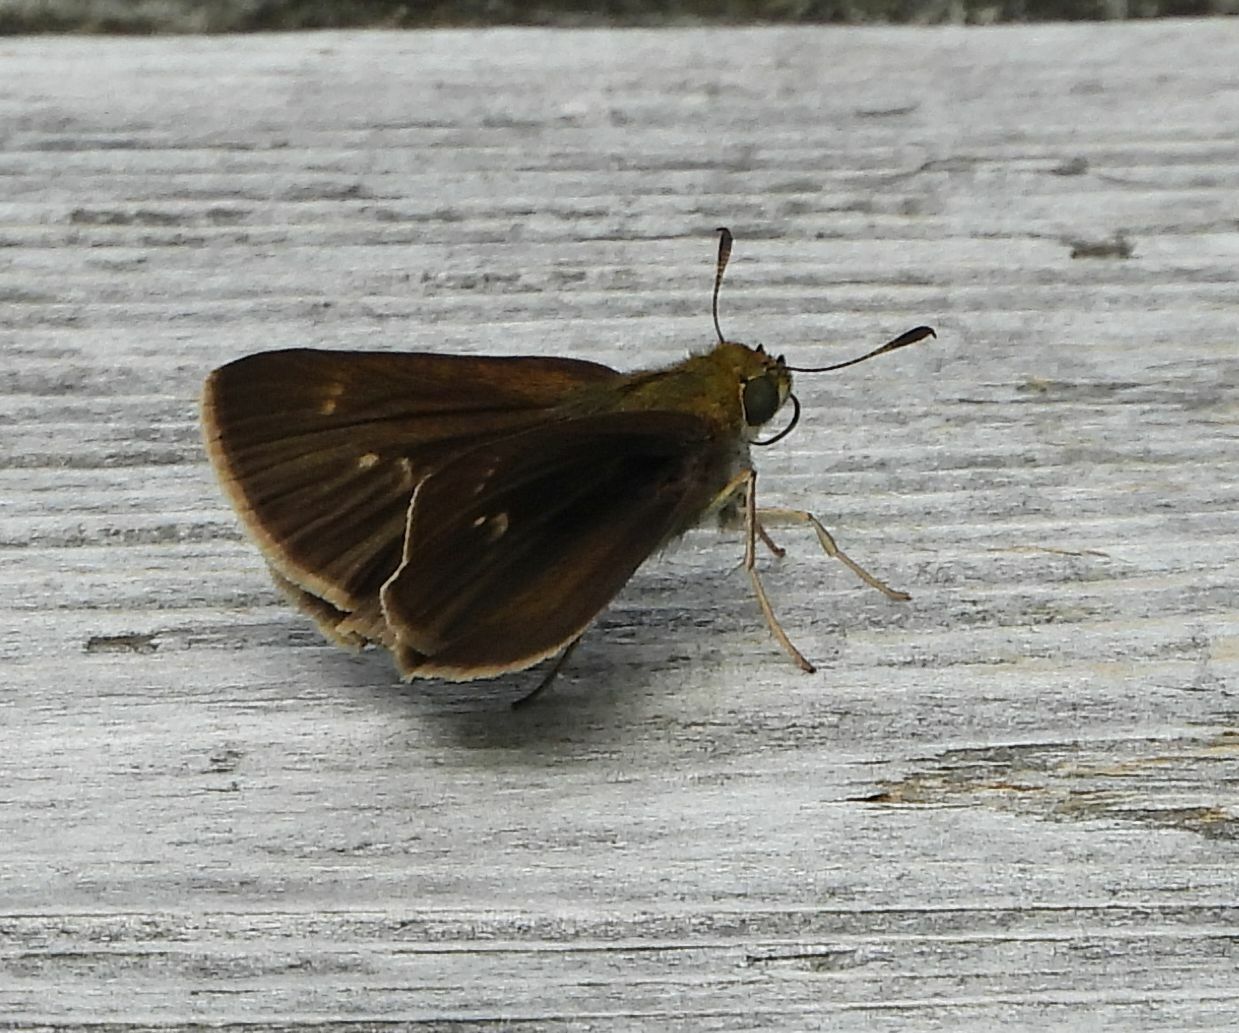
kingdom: Animalia
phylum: Arthropoda
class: Insecta
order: Lepidoptera
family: Hesperiidae
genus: Euphyes
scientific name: Euphyes vestris
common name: Dun skipper
